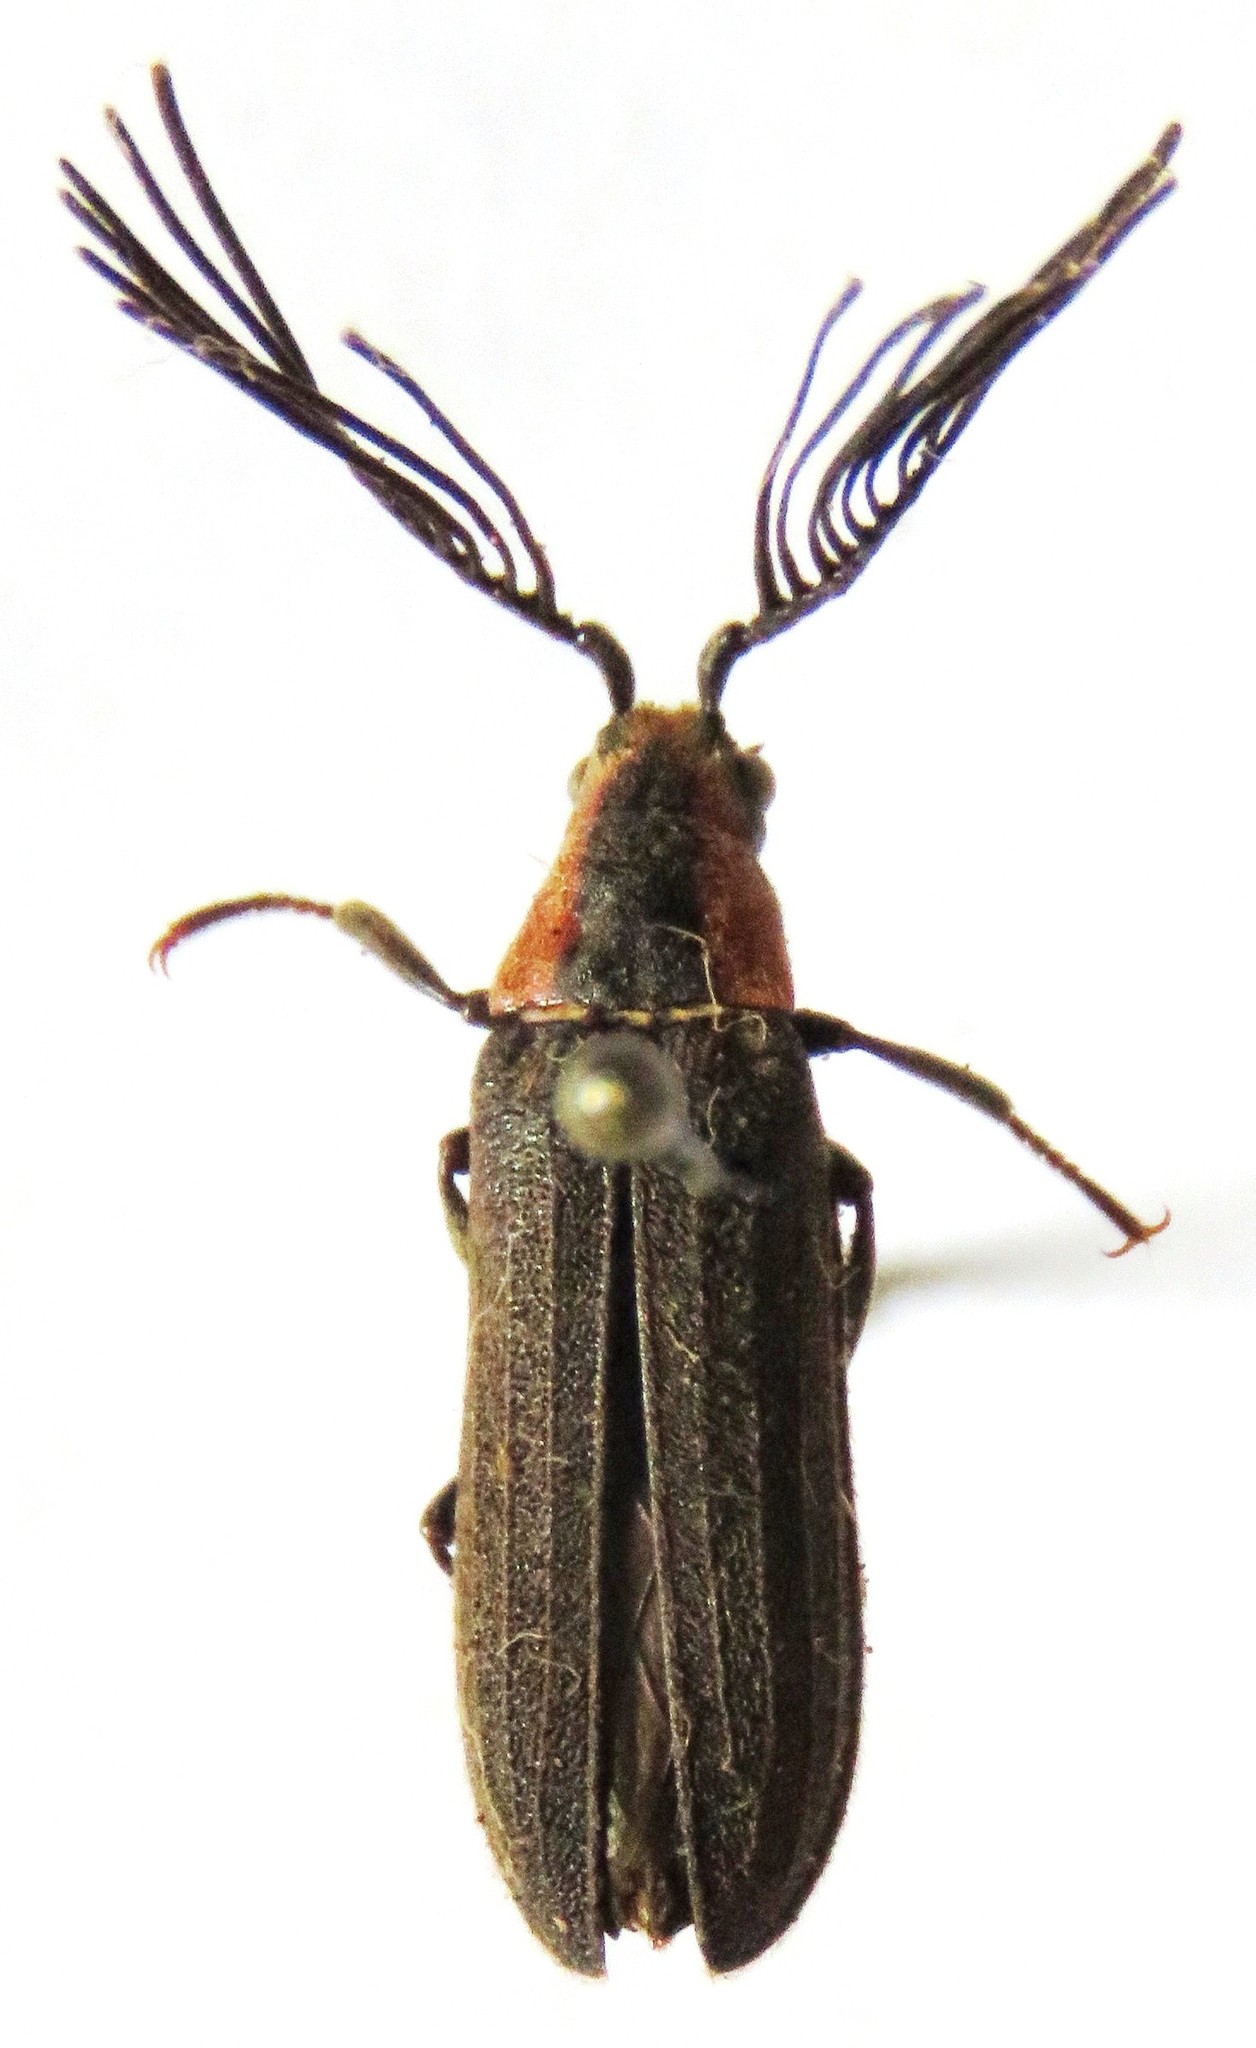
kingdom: Animalia
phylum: Arthropoda
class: Insecta
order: Coleoptera
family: Callirhipidae
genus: Celadonia
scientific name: Celadonia
